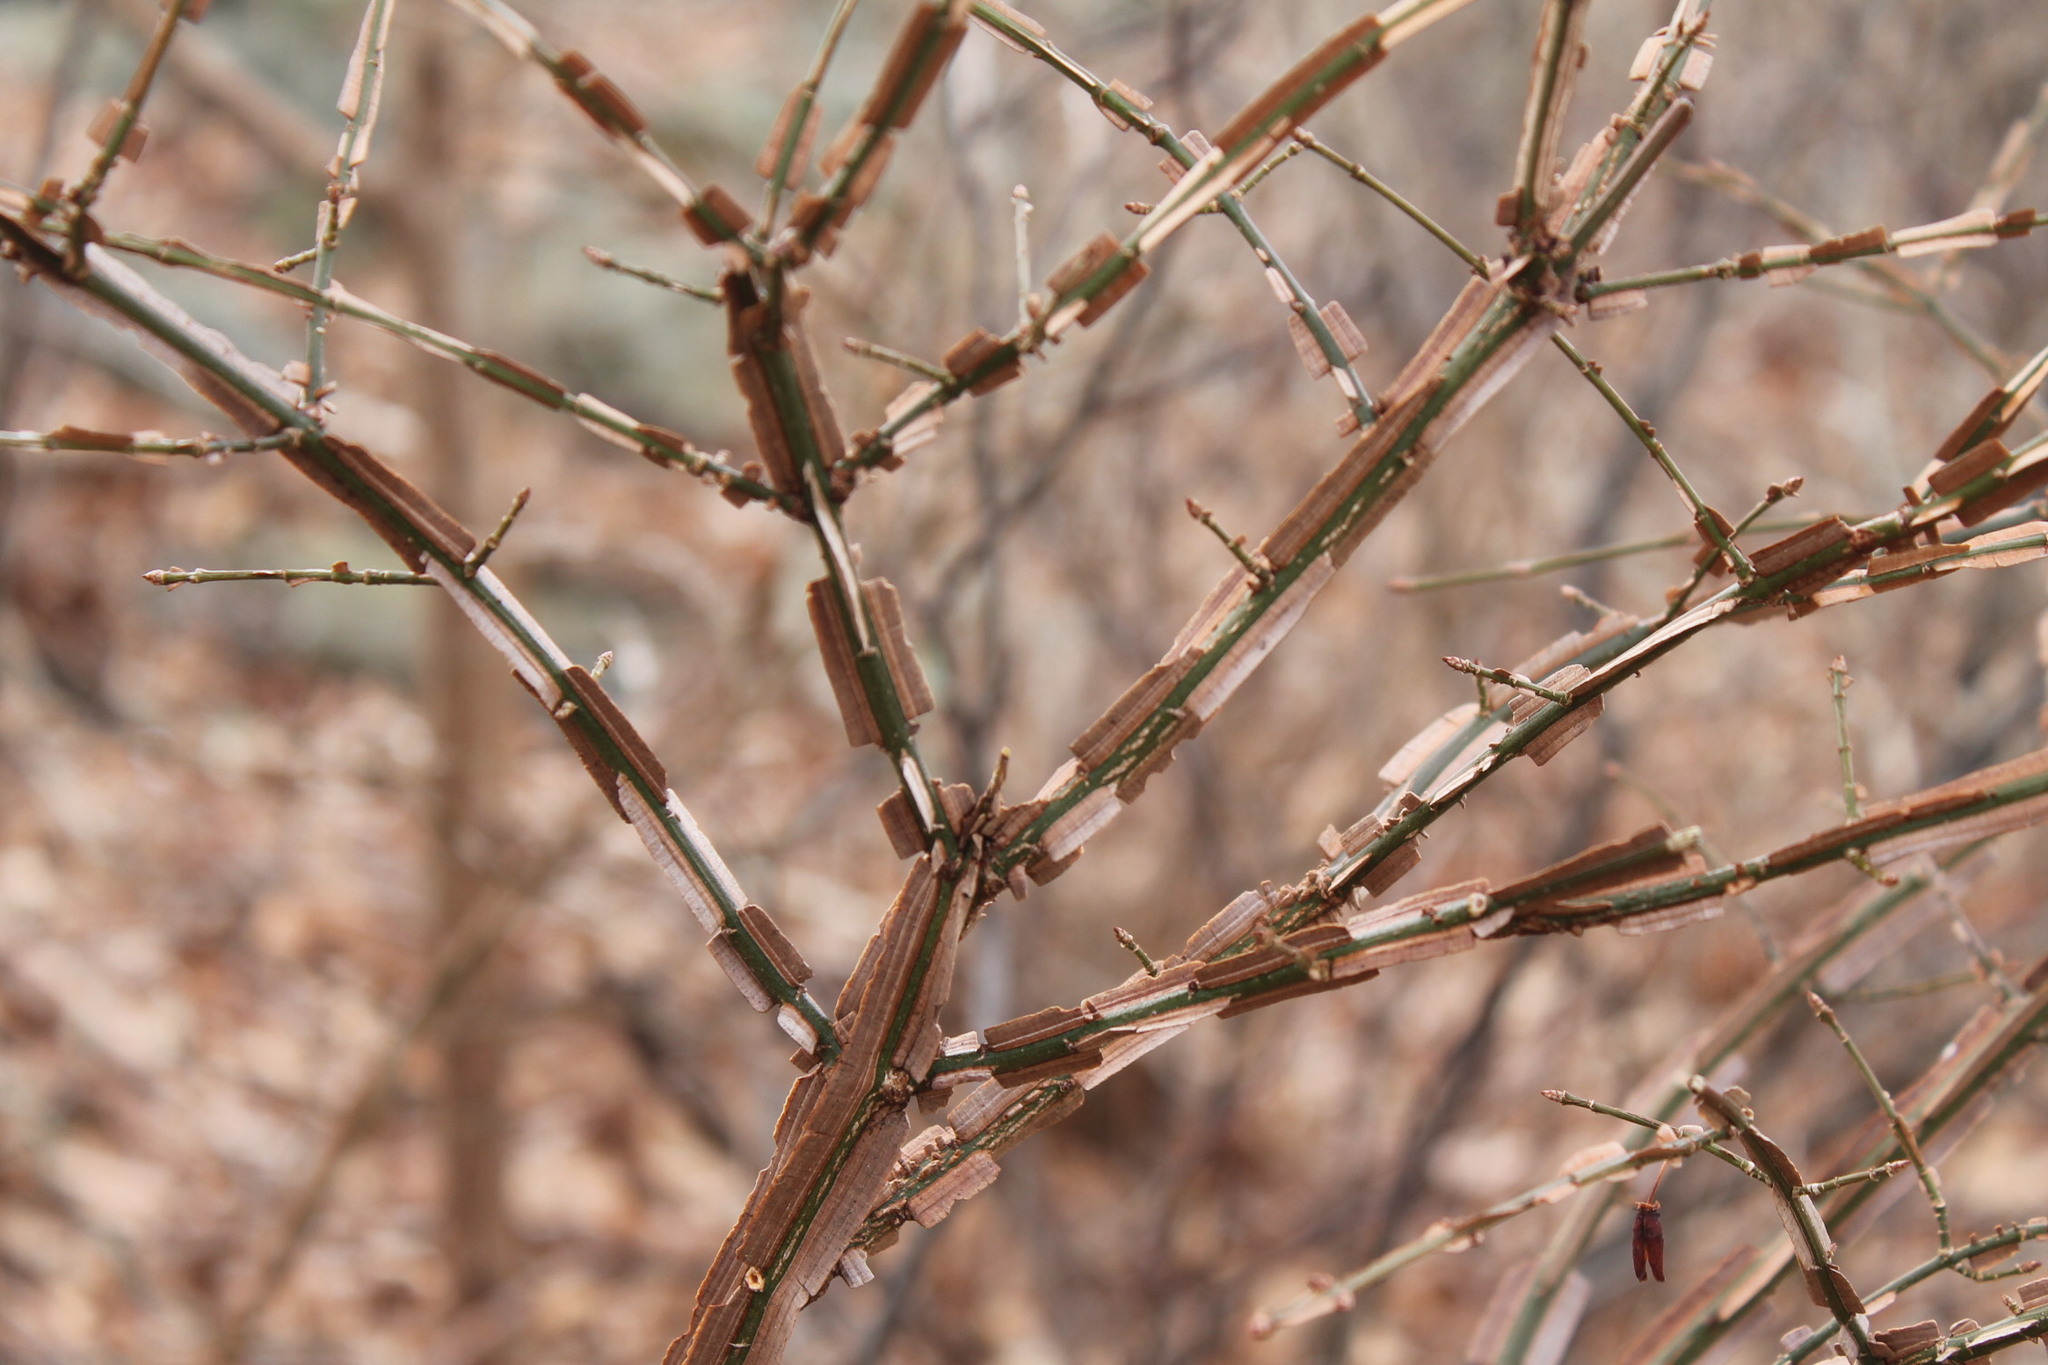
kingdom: Plantae
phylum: Tracheophyta
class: Magnoliopsida
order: Celastrales
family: Celastraceae
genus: Euonymus
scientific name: Euonymus alatus
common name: Winged euonymus
